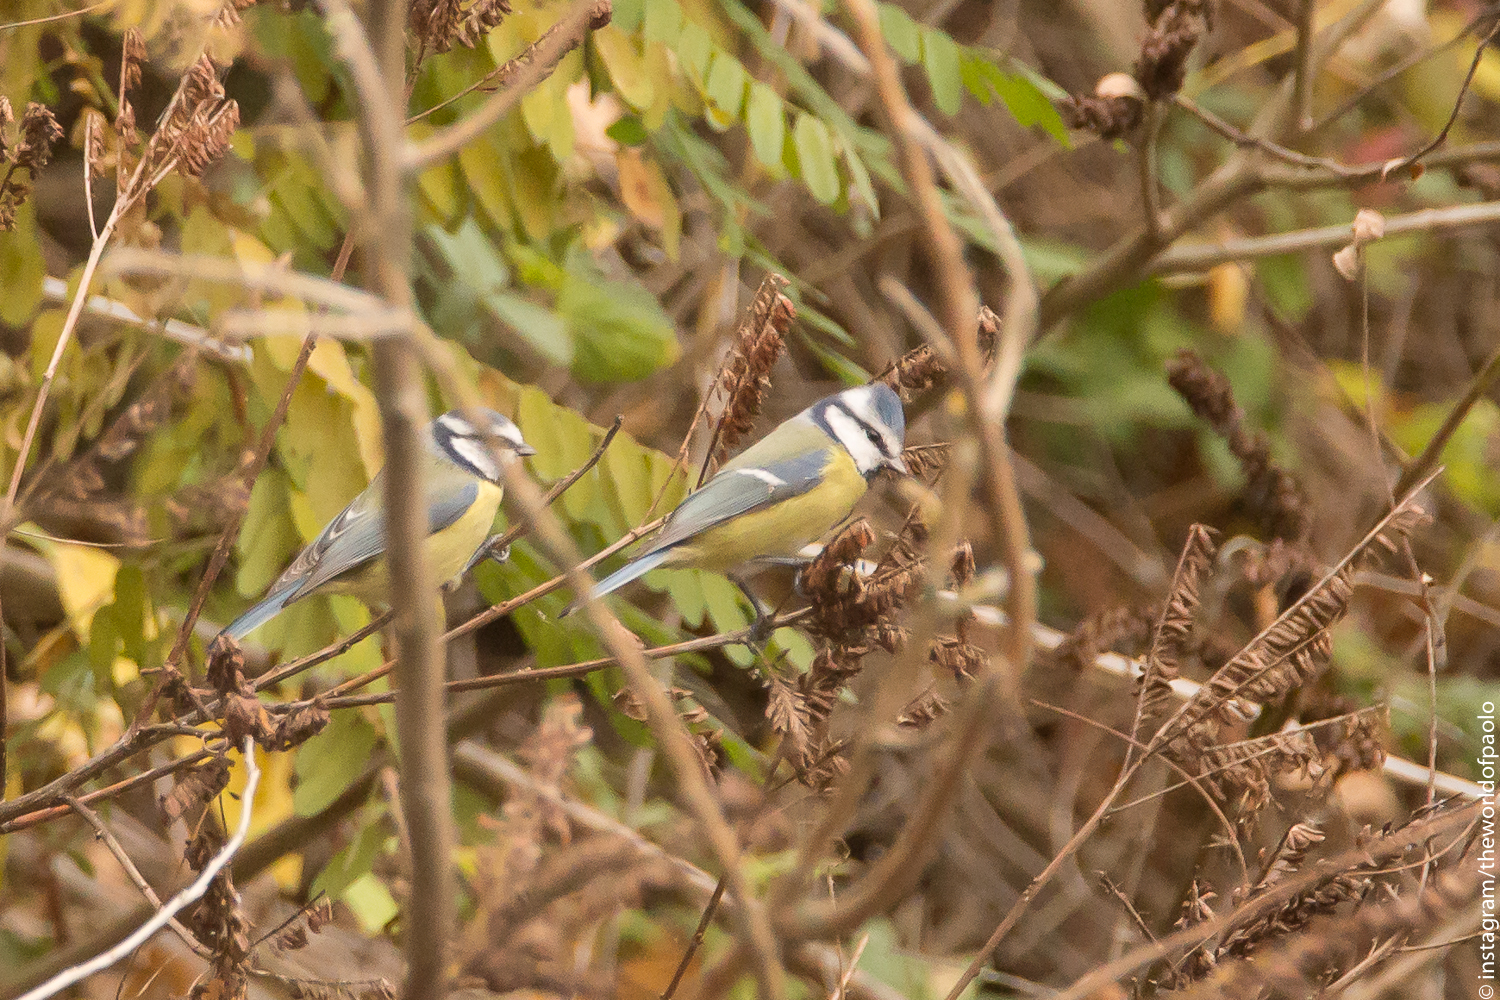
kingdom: Animalia
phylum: Chordata
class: Aves
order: Passeriformes
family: Paridae
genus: Cyanistes
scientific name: Cyanistes caeruleus
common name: Eurasian blue tit
